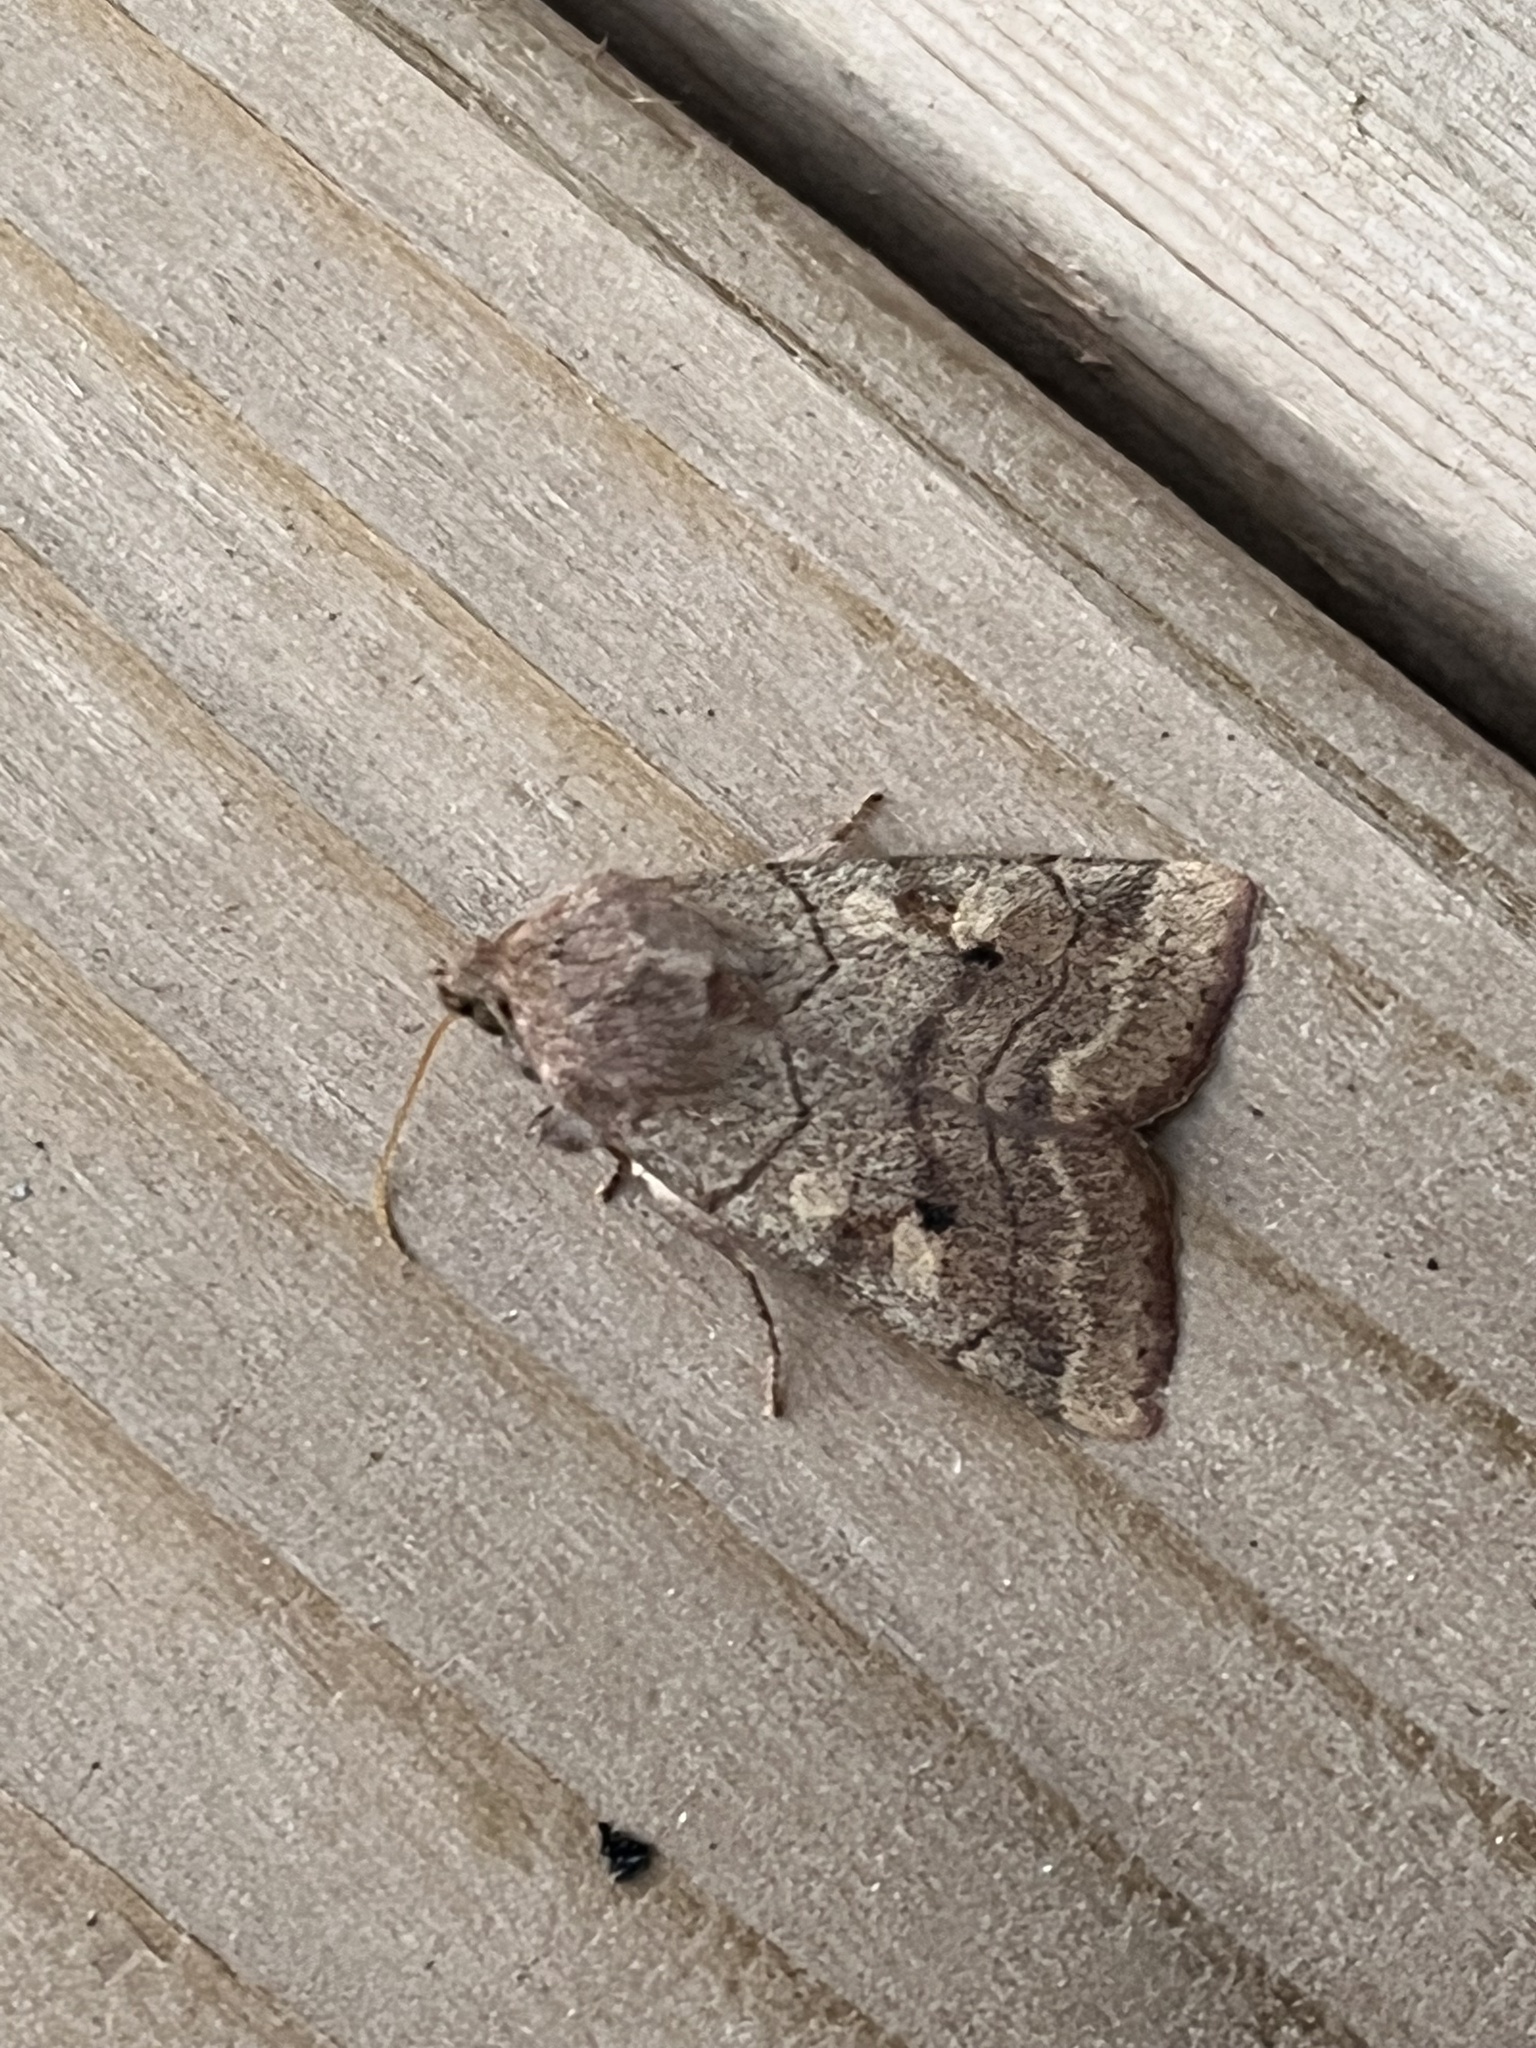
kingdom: Animalia
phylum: Arthropoda
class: Insecta
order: Lepidoptera
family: Noctuidae
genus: Enargia
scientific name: Enargia infumata
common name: Smoked sallow
